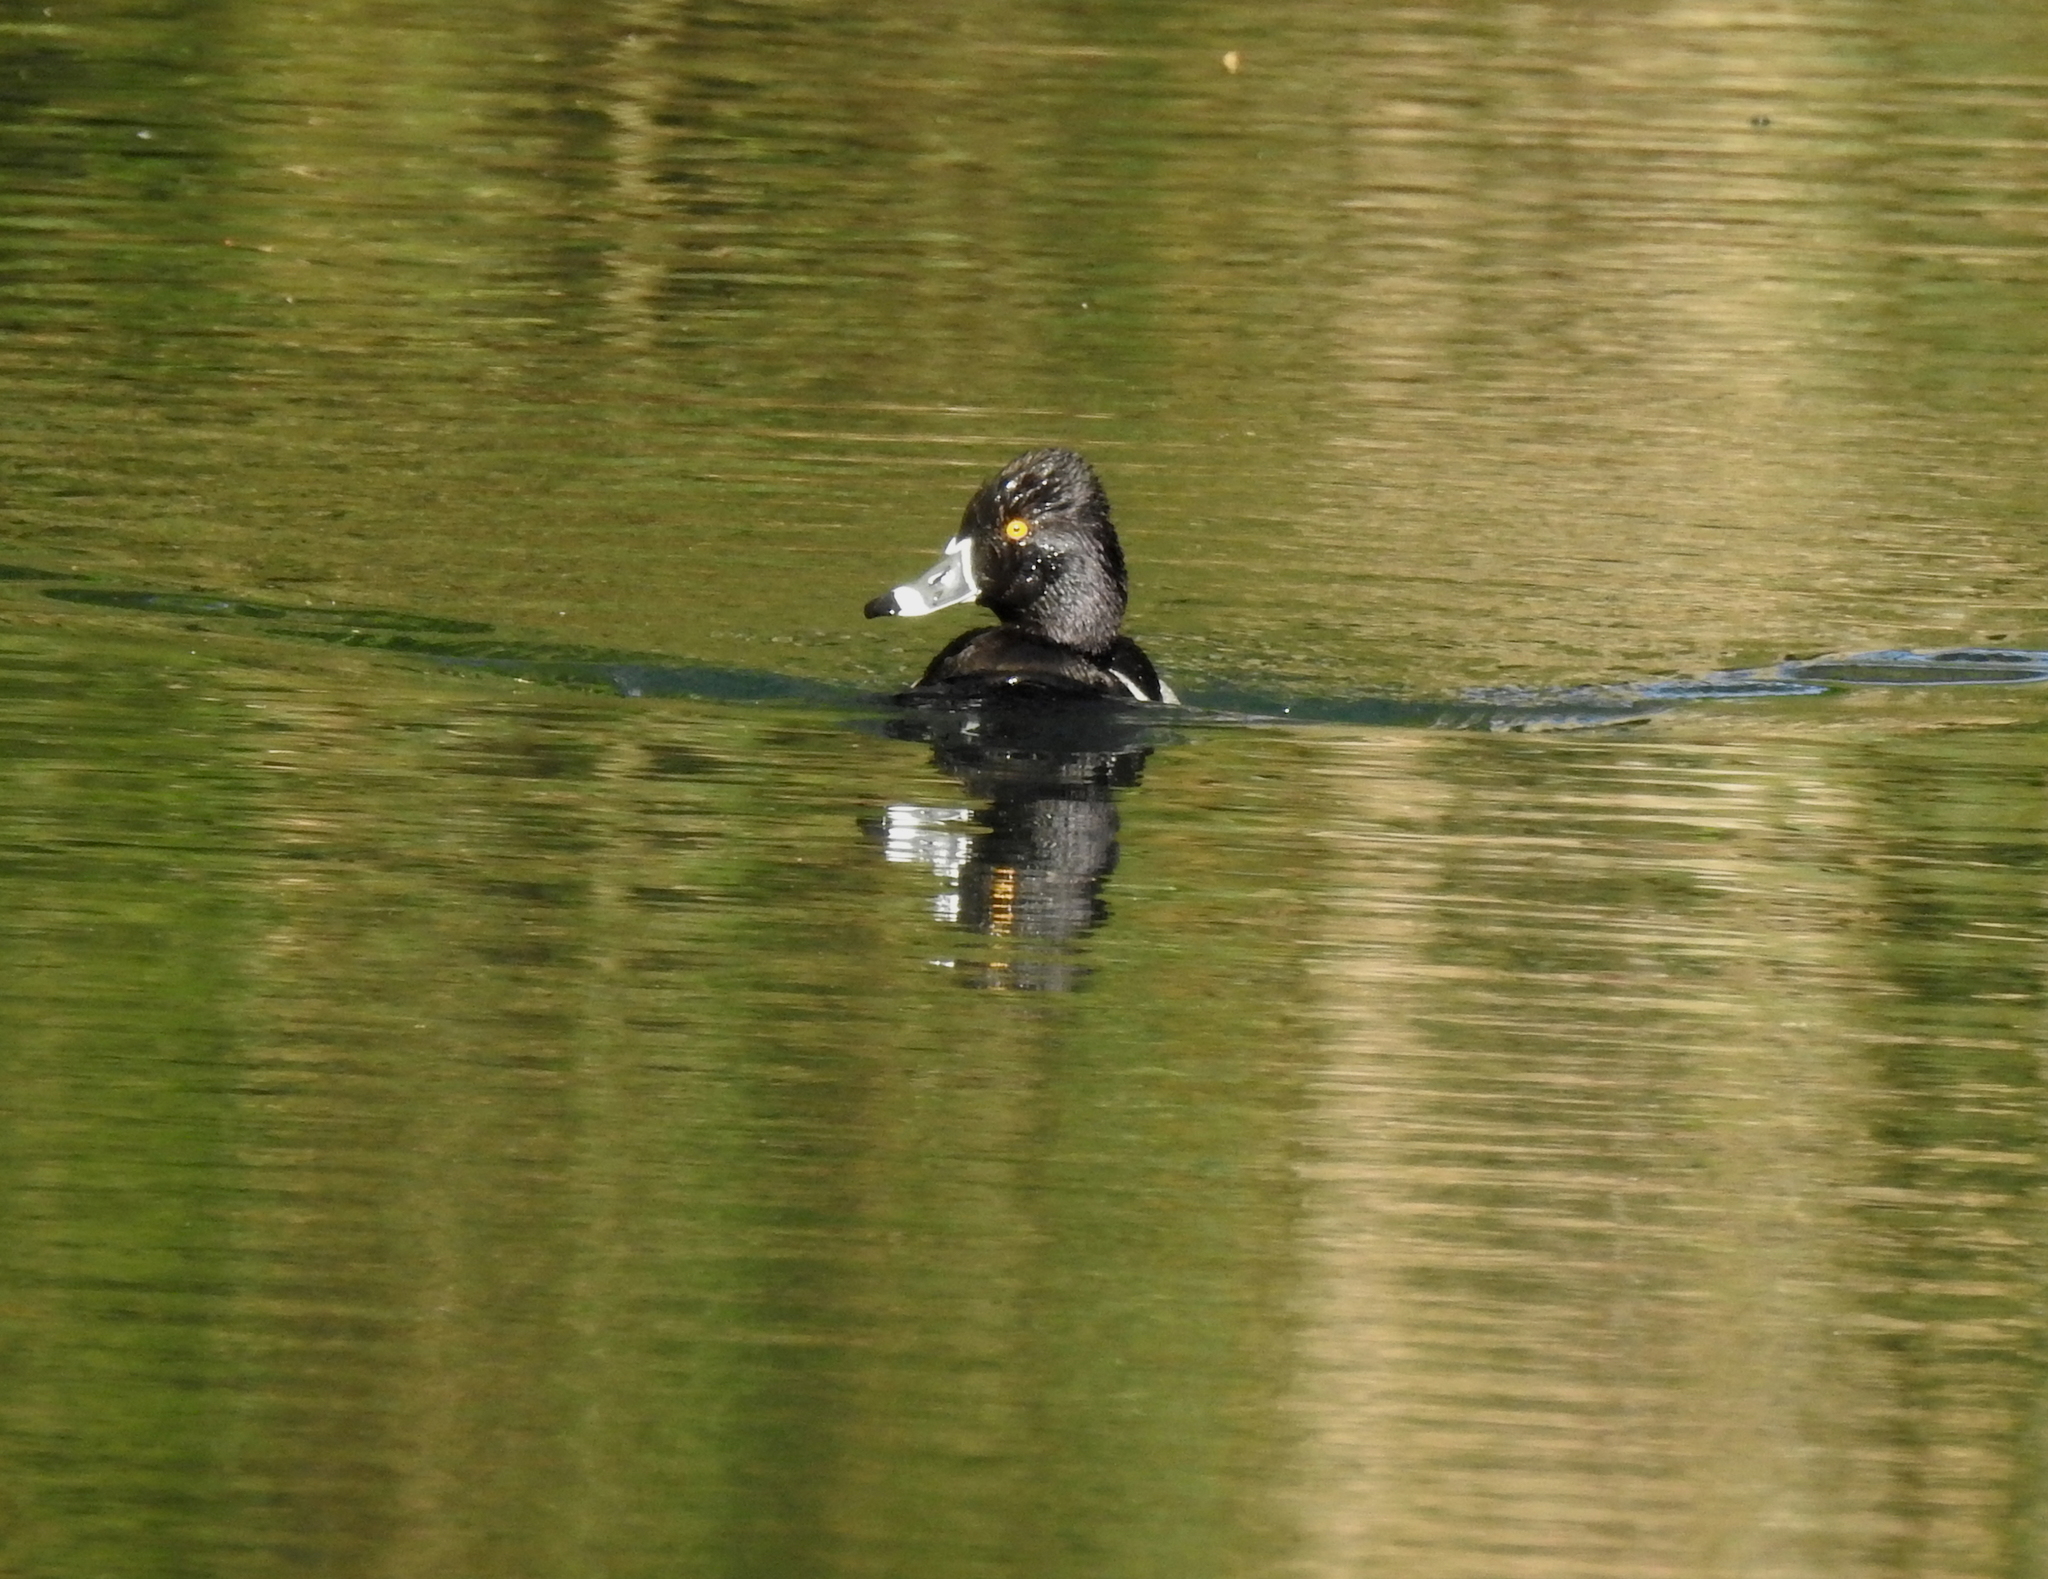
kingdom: Animalia
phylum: Chordata
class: Aves
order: Anseriformes
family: Anatidae
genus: Aythya
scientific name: Aythya collaris
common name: Ring-necked duck
